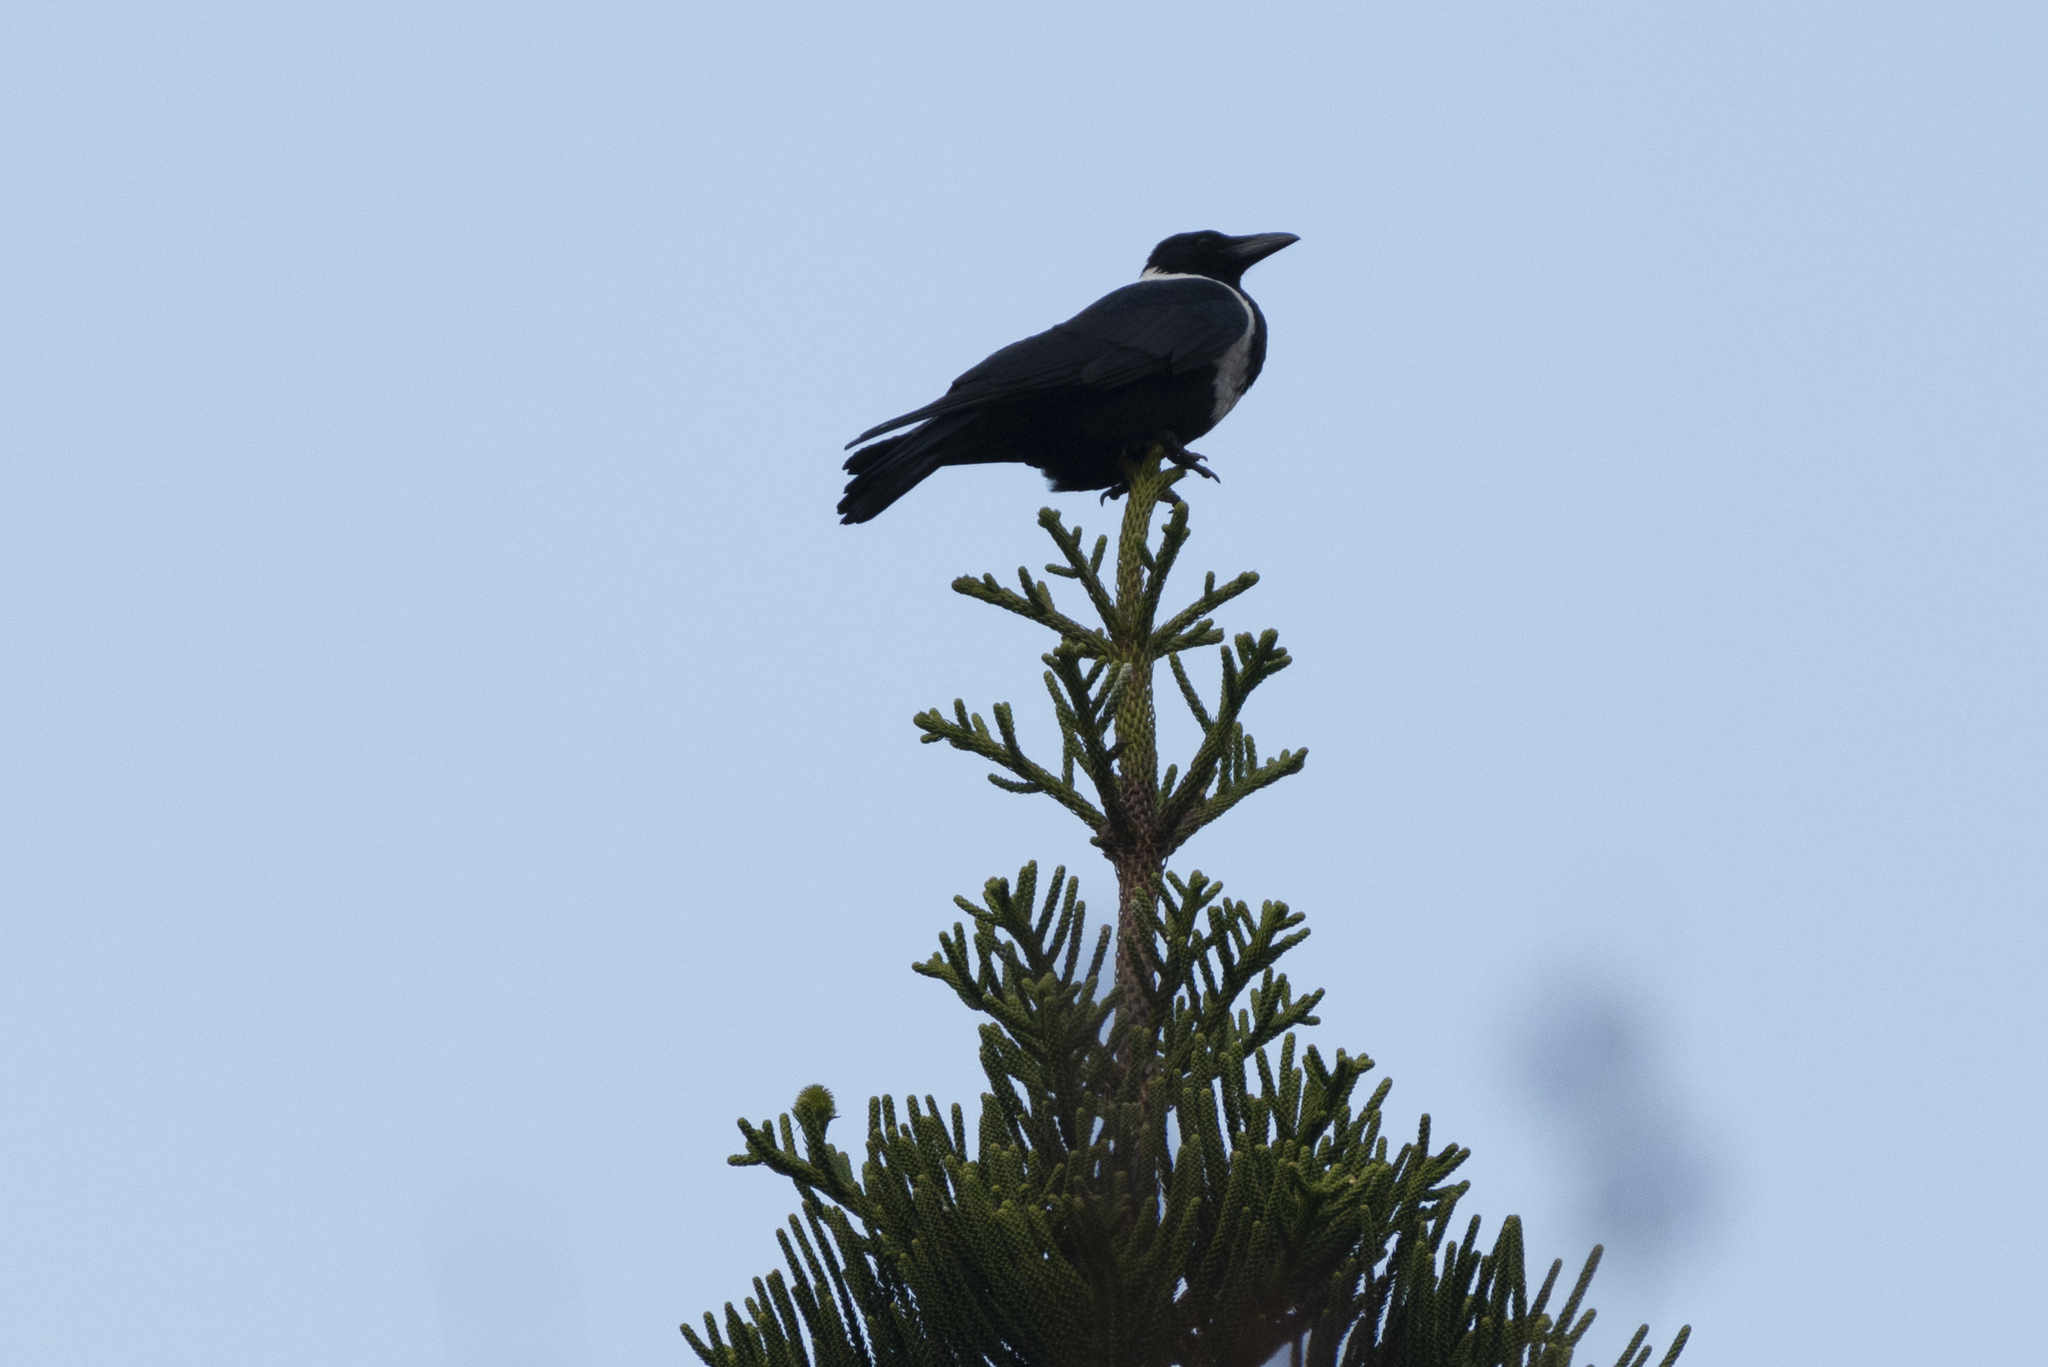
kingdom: Animalia
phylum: Chordata
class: Aves
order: Passeriformes
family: Corvidae
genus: Corvus
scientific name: Corvus pectoralis
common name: Collared crow
